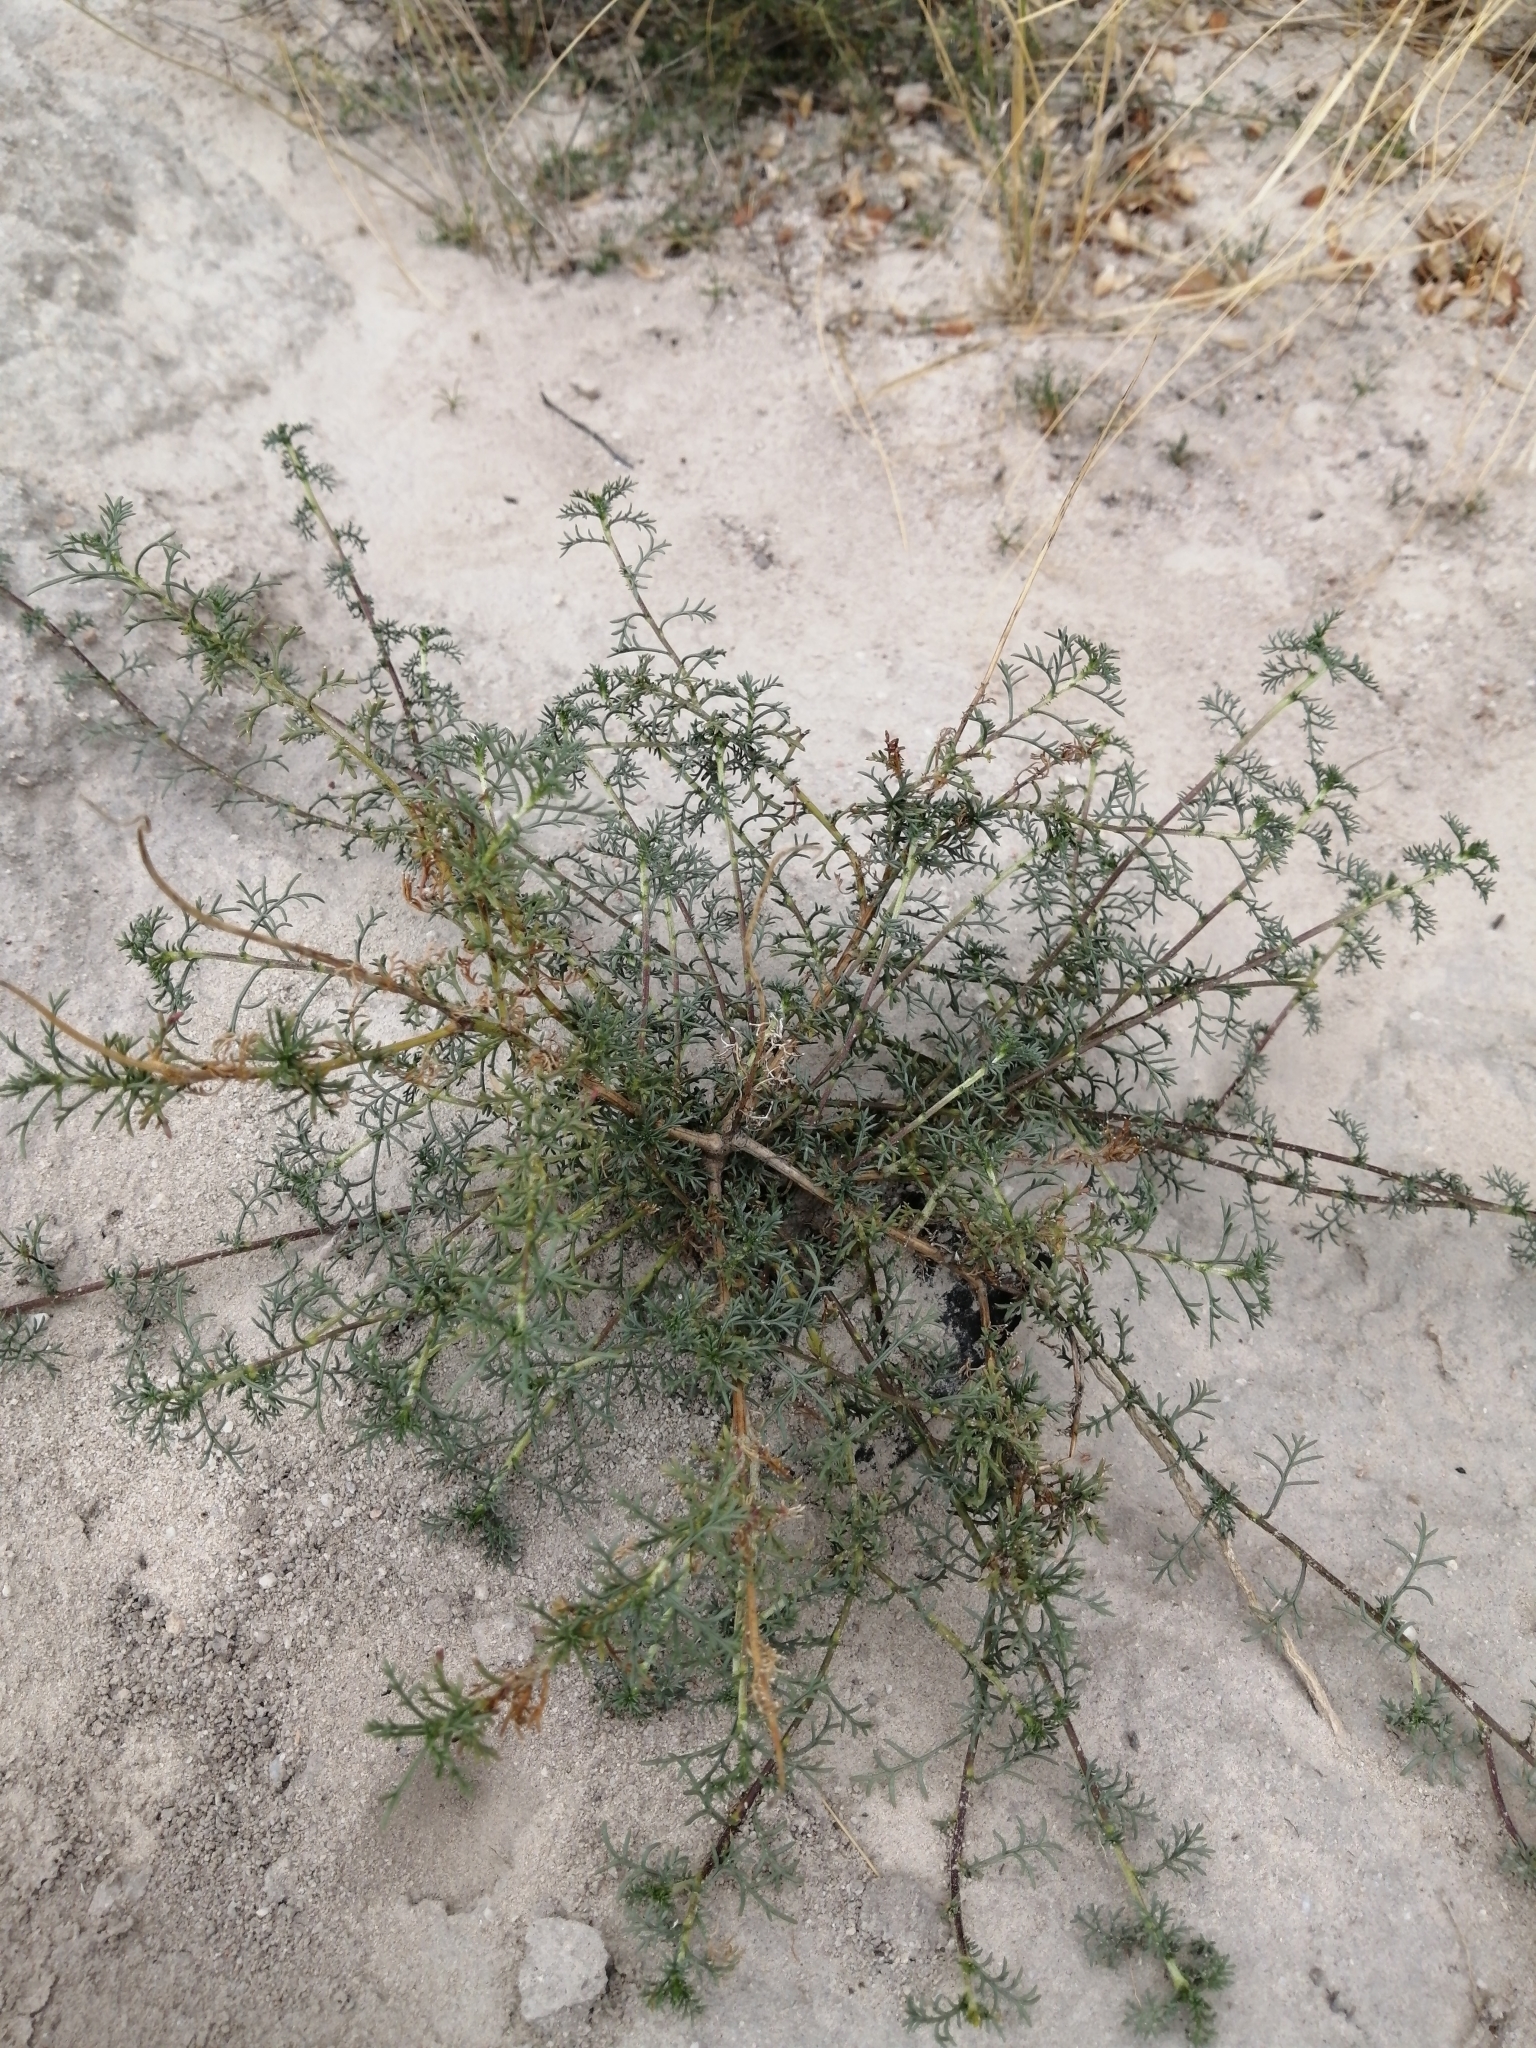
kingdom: Plantae
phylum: Tracheophyta
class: Magnoliopsida
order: Asterales
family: Asteraceae
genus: Ursinia
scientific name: Ursinia chrysanthemoides
